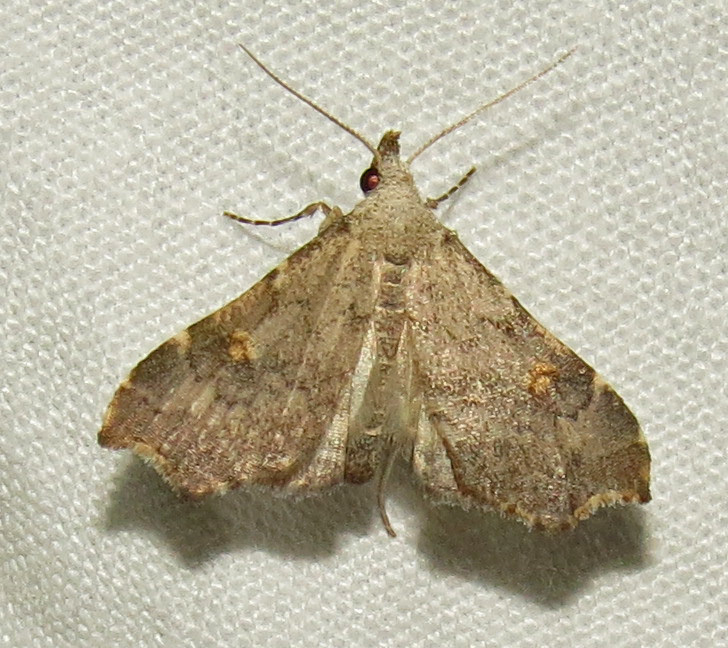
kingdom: Animalia
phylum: Arthropoda
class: Insecta
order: Lepidoptera
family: Erebidae
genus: Redectis
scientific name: Redectis pygmaea
